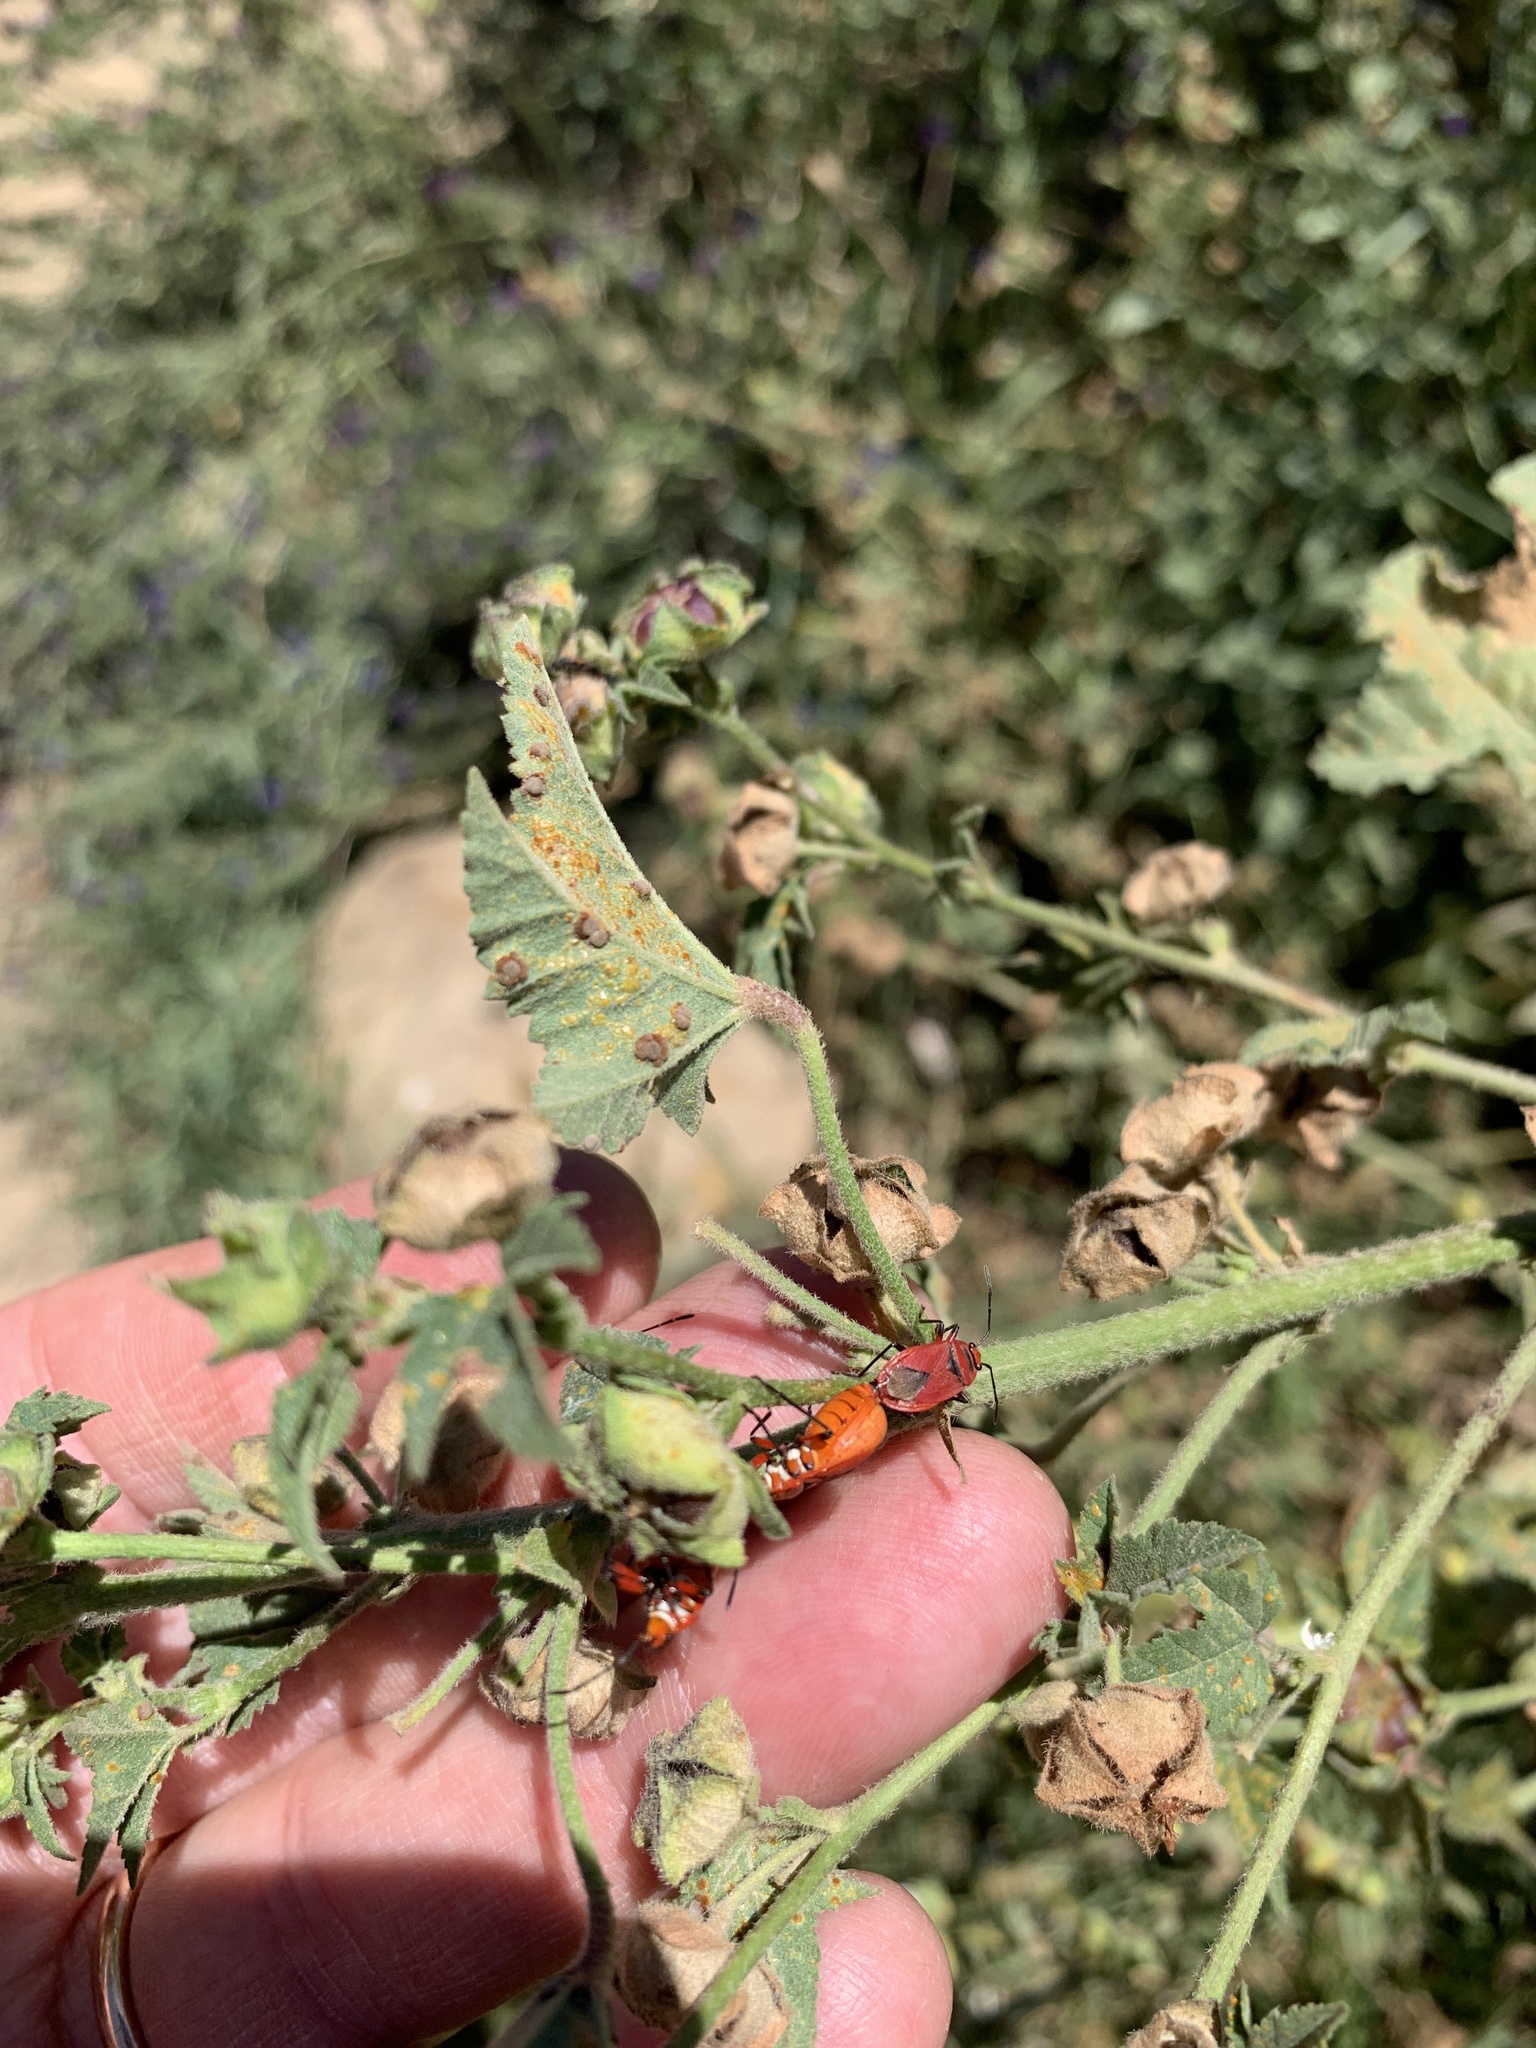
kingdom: Animalia
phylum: Arthropoda
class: Insecta
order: Hemiptera
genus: Cenaeus
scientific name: Cenaeus
